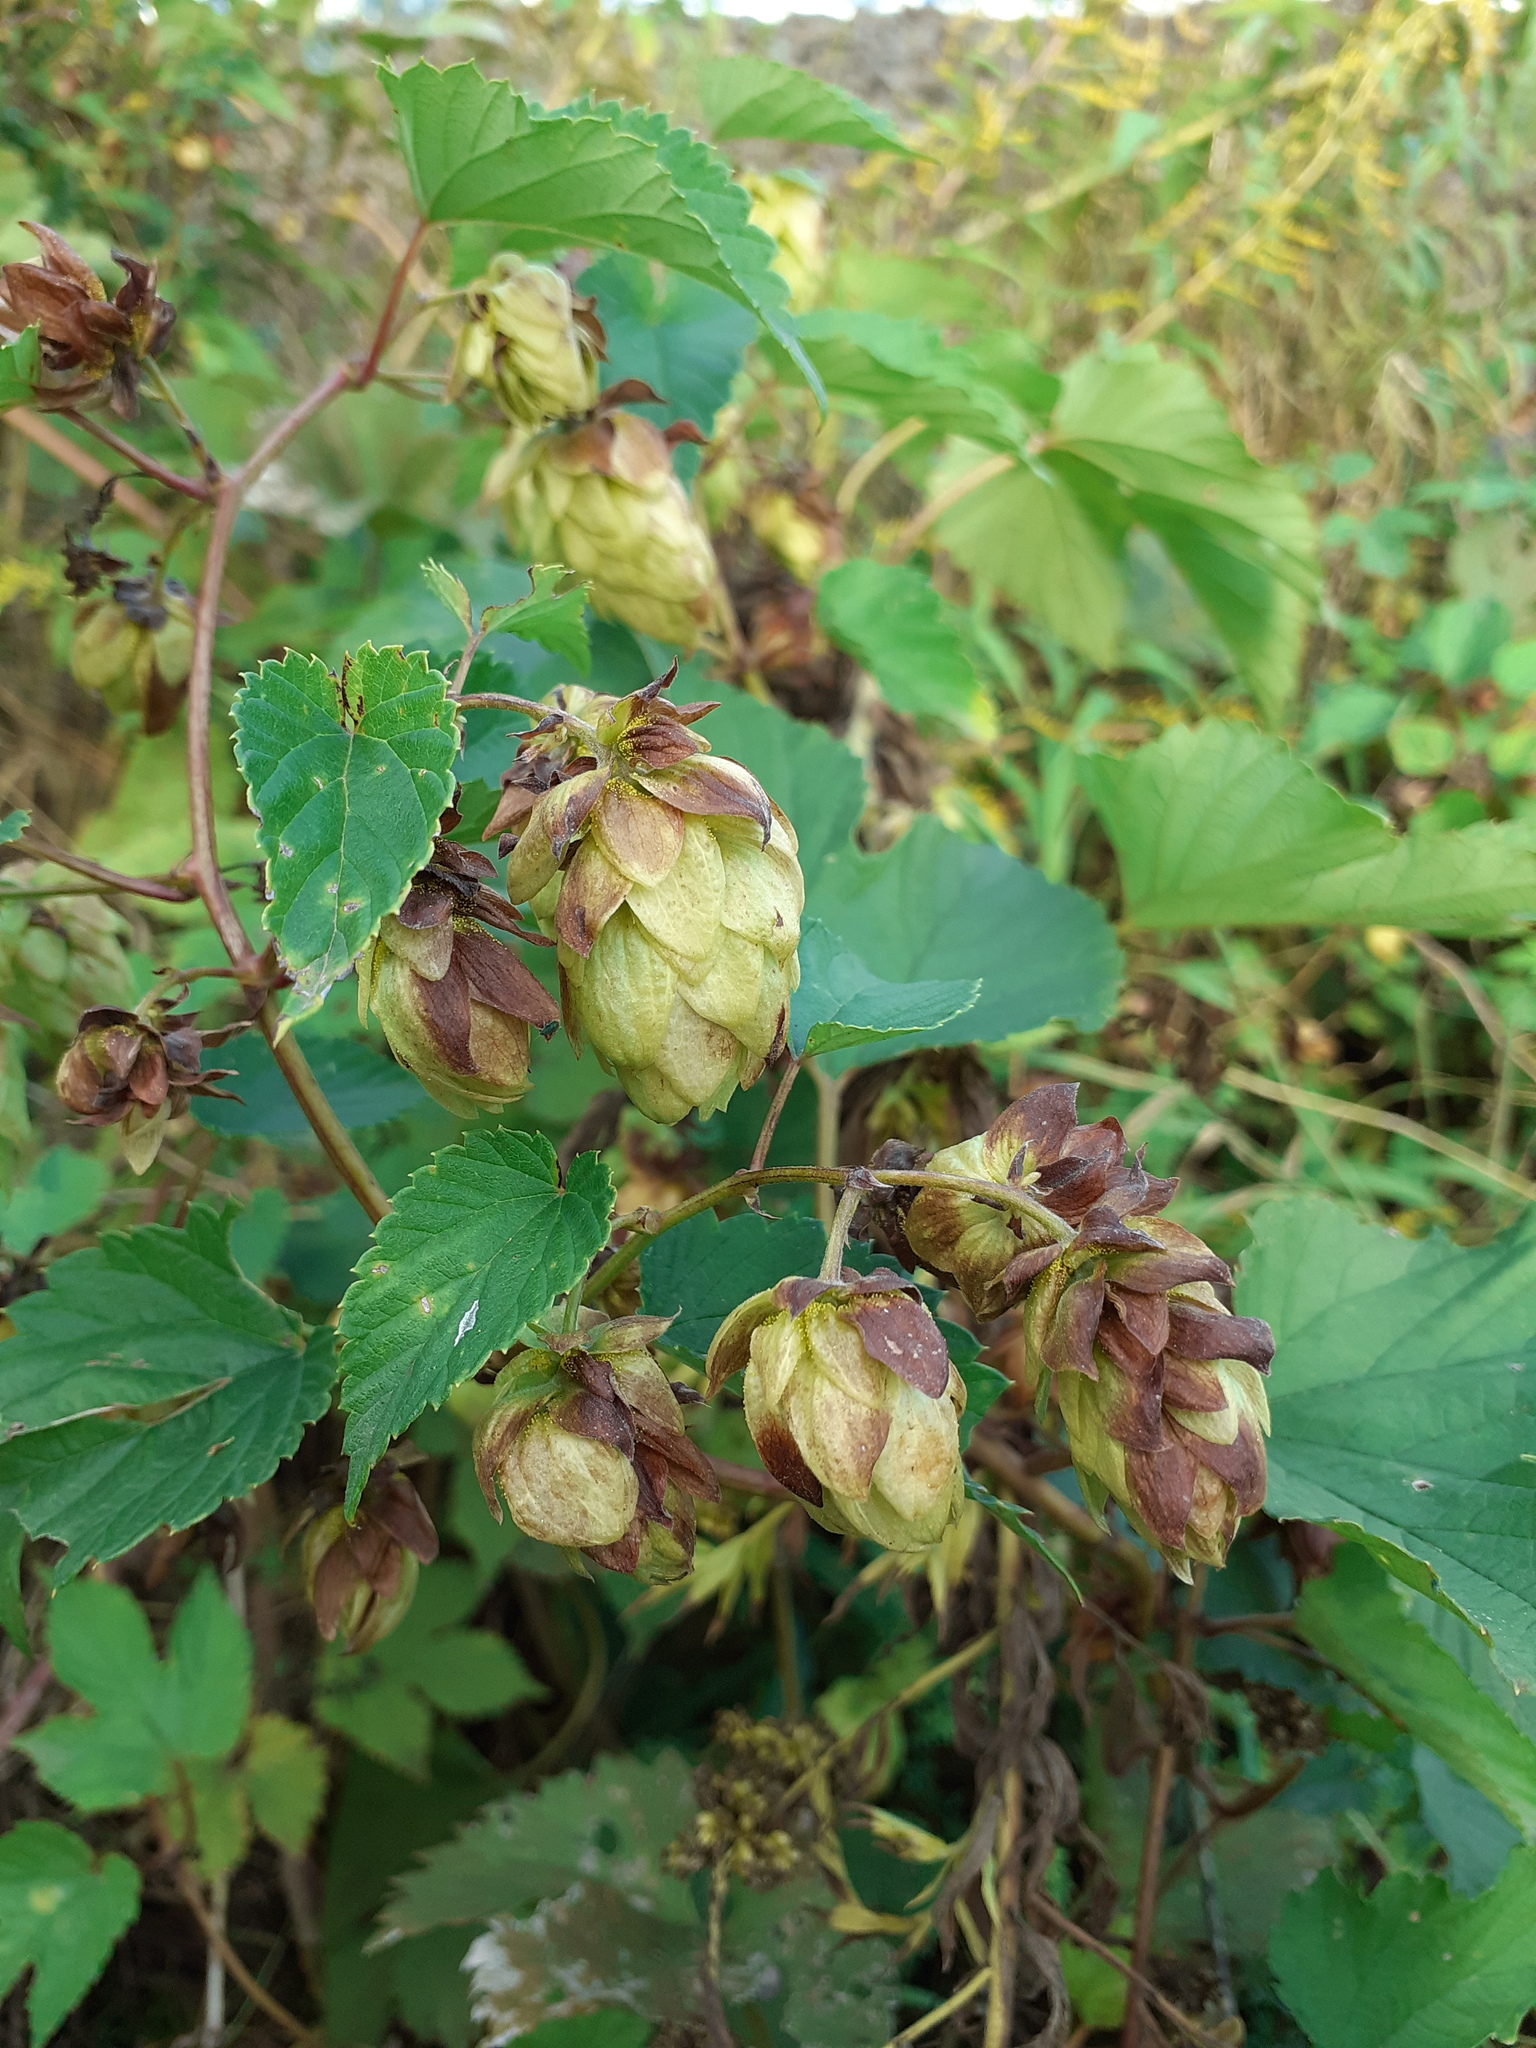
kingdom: Plantae
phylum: Tracheophyta
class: Magnoliopsida
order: Rosales
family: Cannabaceae
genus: Humulus
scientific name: Humulus lupulus
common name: Hop
